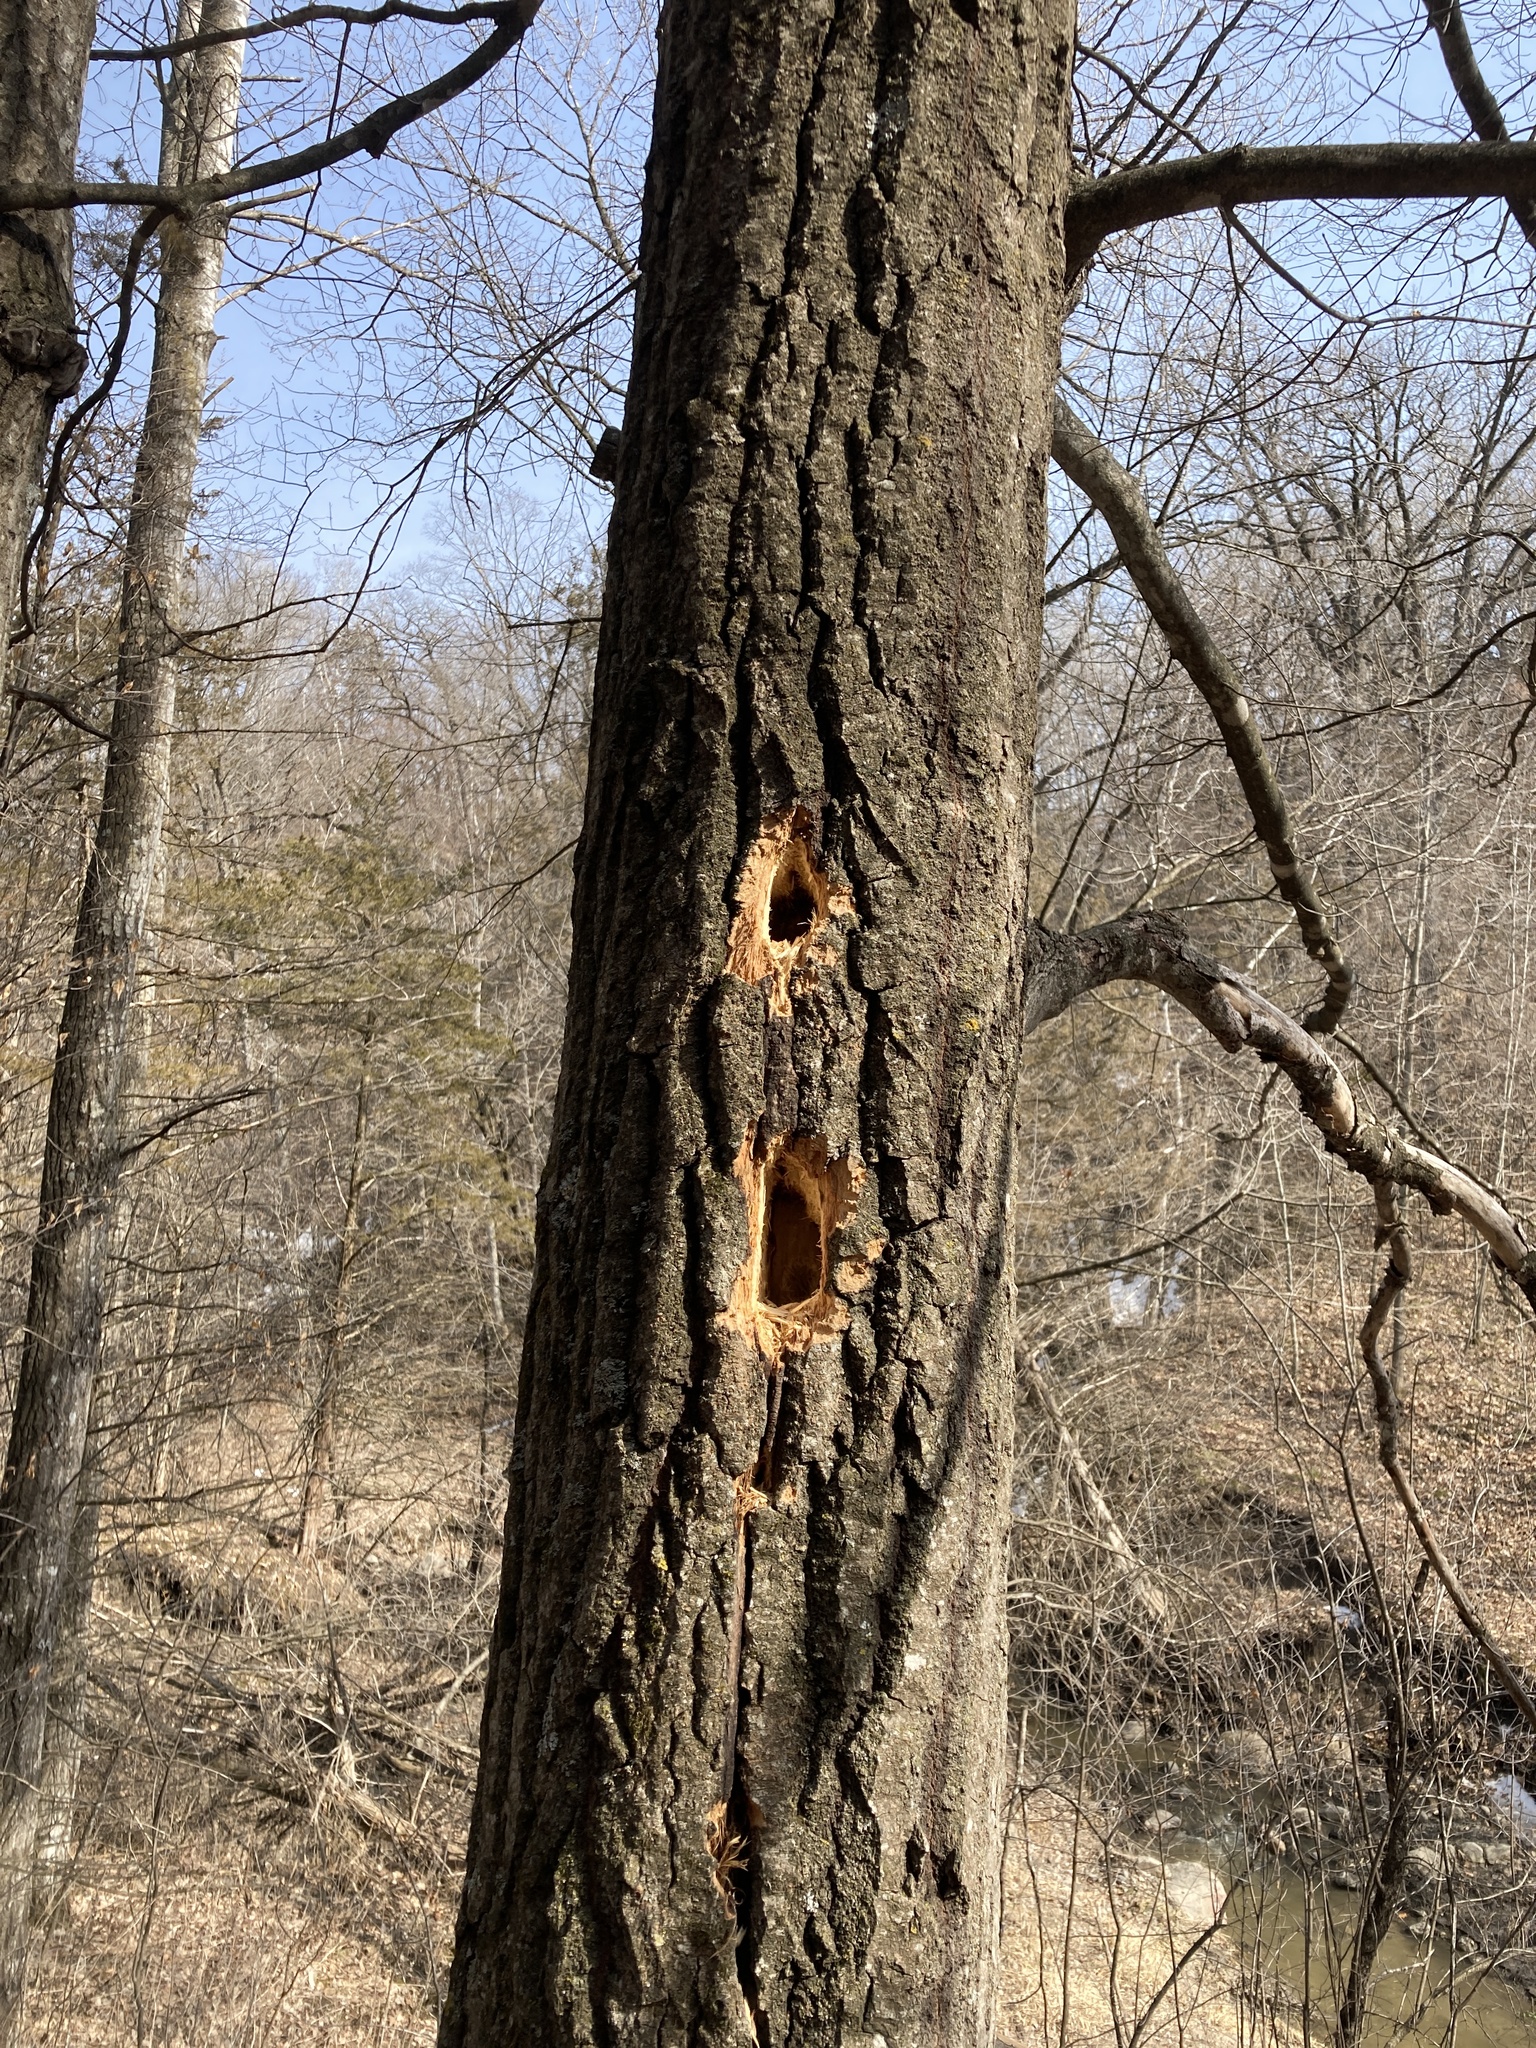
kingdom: Animalia
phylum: Chordata
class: Aves
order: Piciformes
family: Picidae
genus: Dryocopus
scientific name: Dryocopus pileatus
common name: Pileated woodpecker
